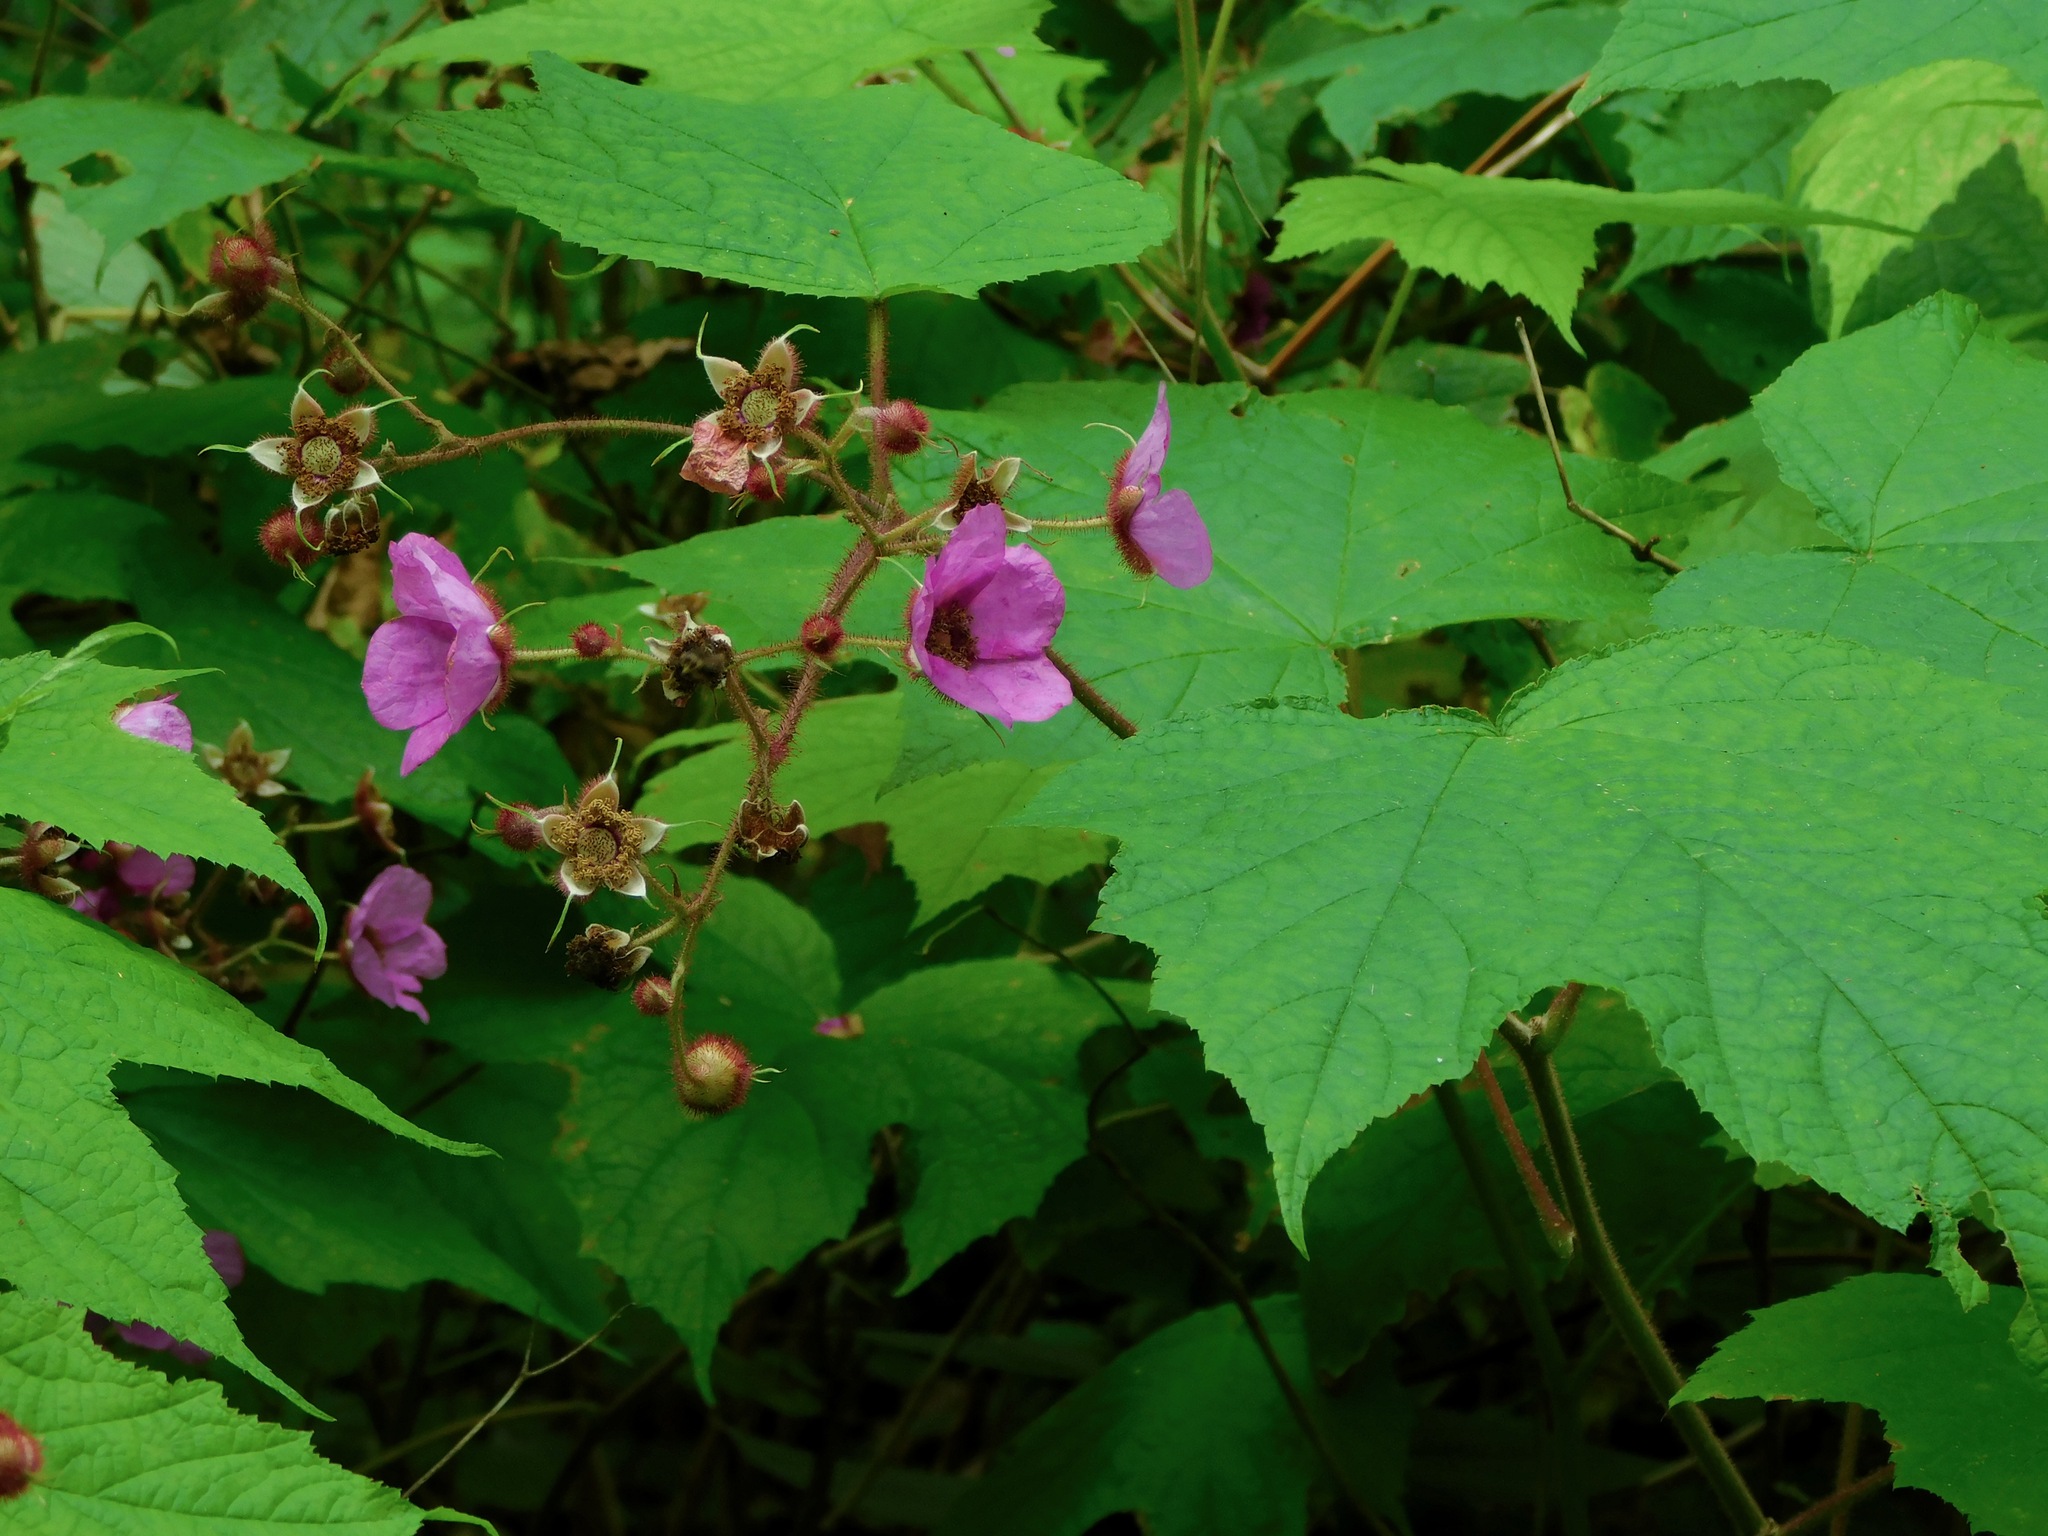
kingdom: Plantae
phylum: Tracheophyta
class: Magnoliopsida
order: Rosales
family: Rosaceae
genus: Rubus
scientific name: Rubus odoratus
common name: Purple-flowered raspberry
